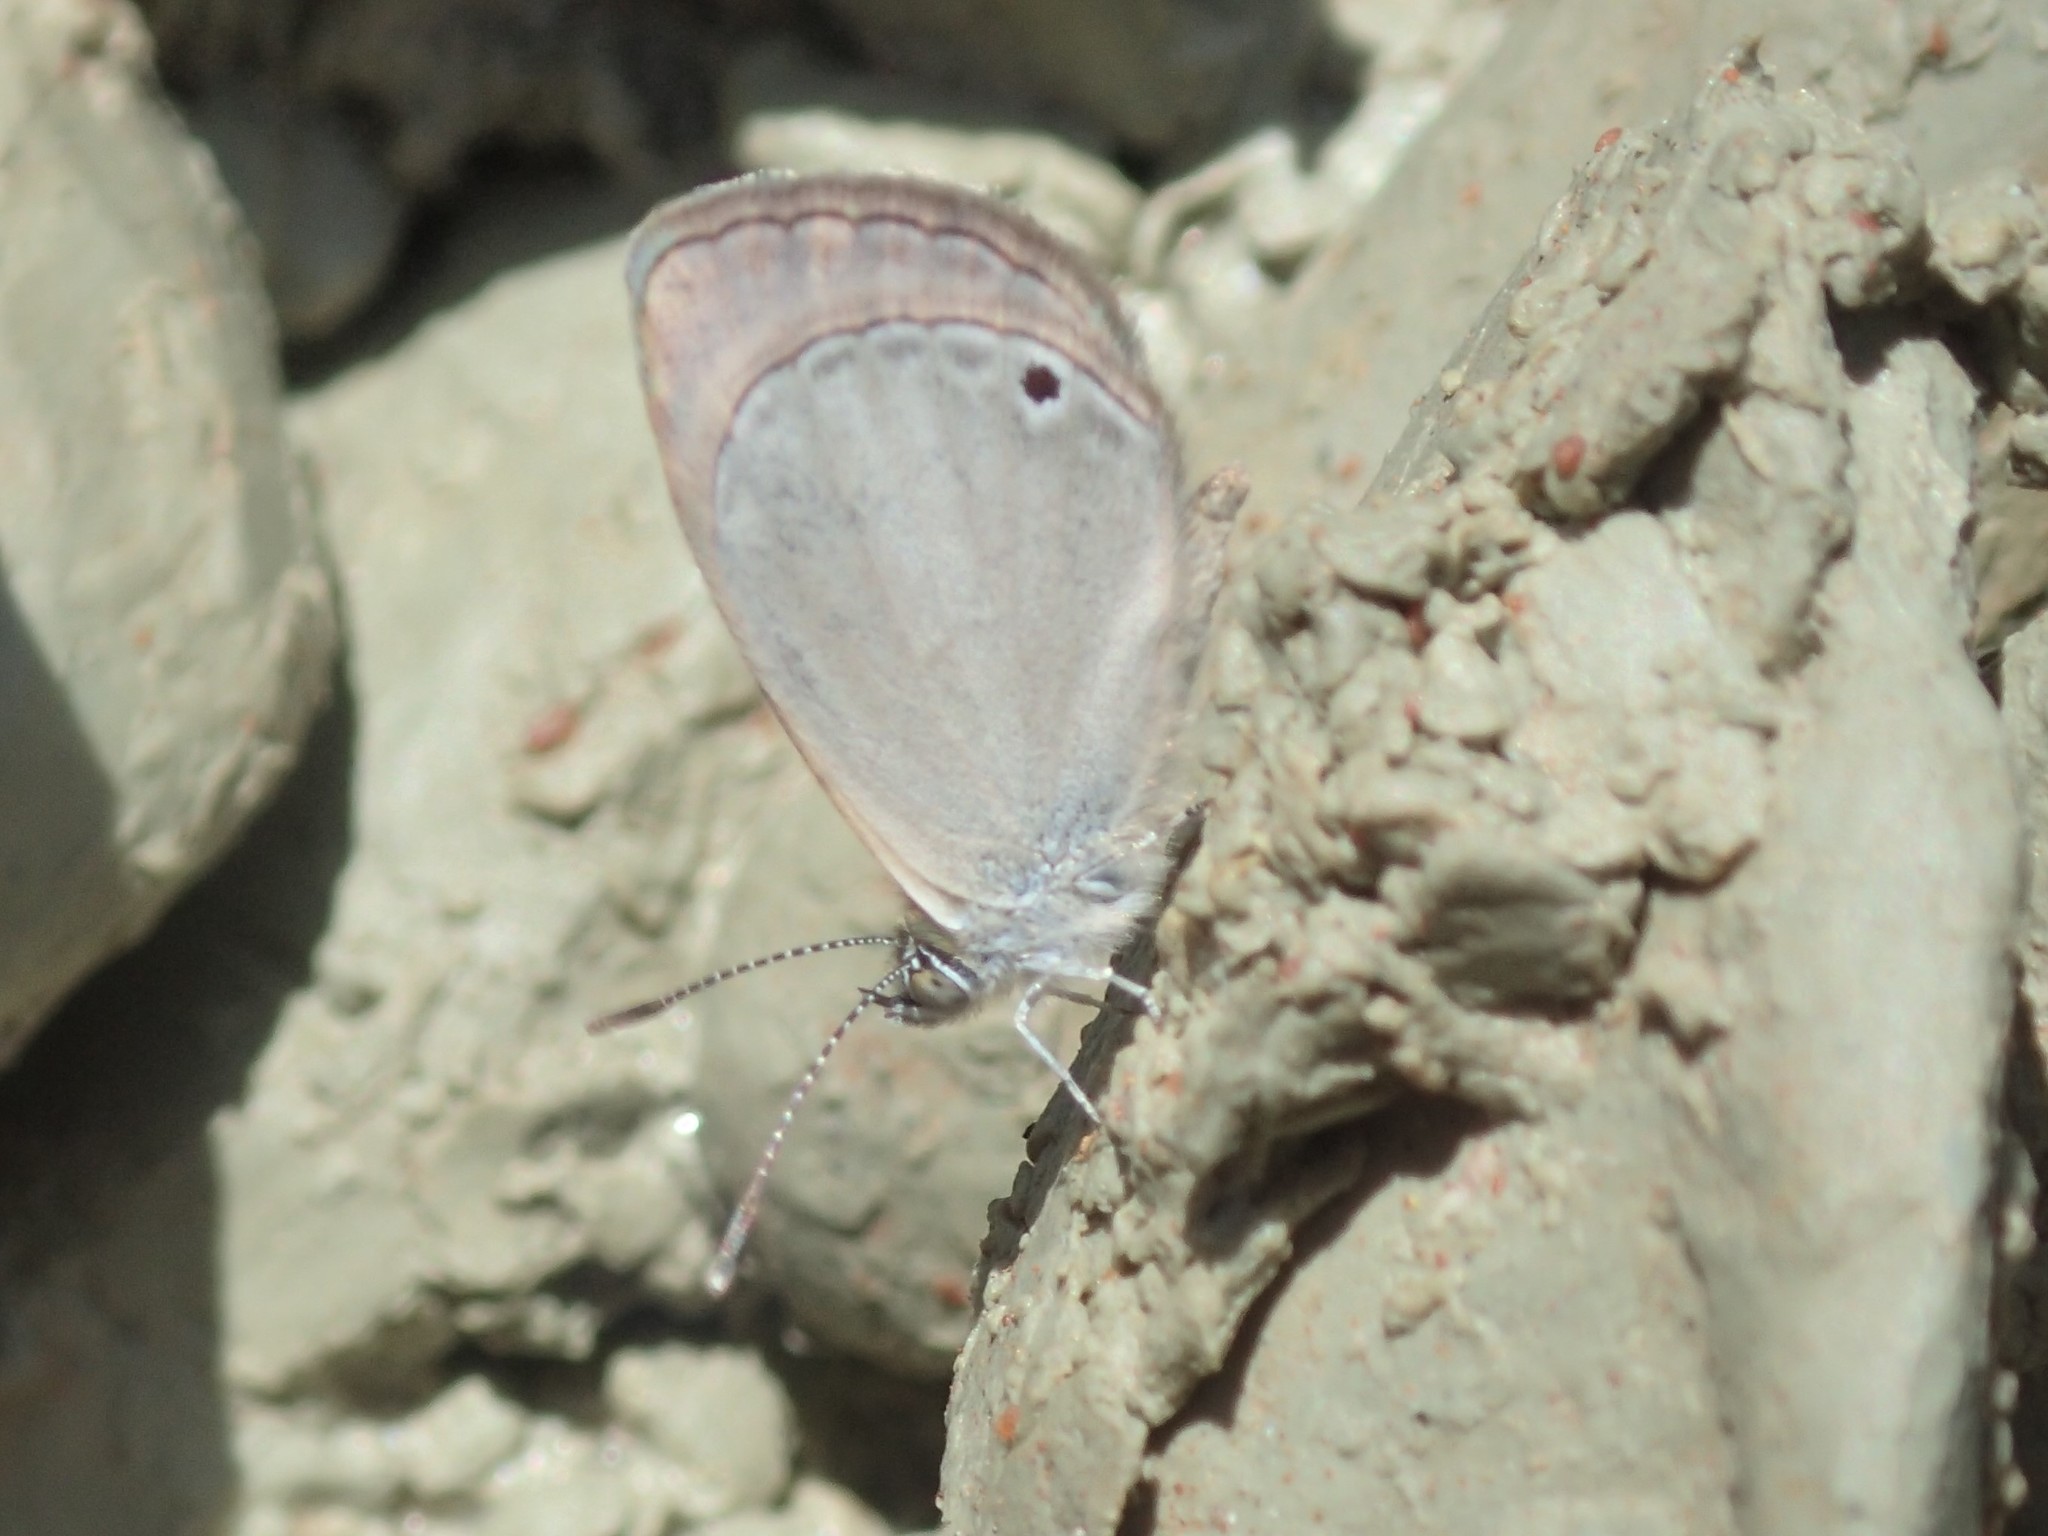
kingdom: Animalia
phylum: Arthropoda
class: Insecta
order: Lepidoptera
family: Lycaenidae
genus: Cupido
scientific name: Cupido nisa
